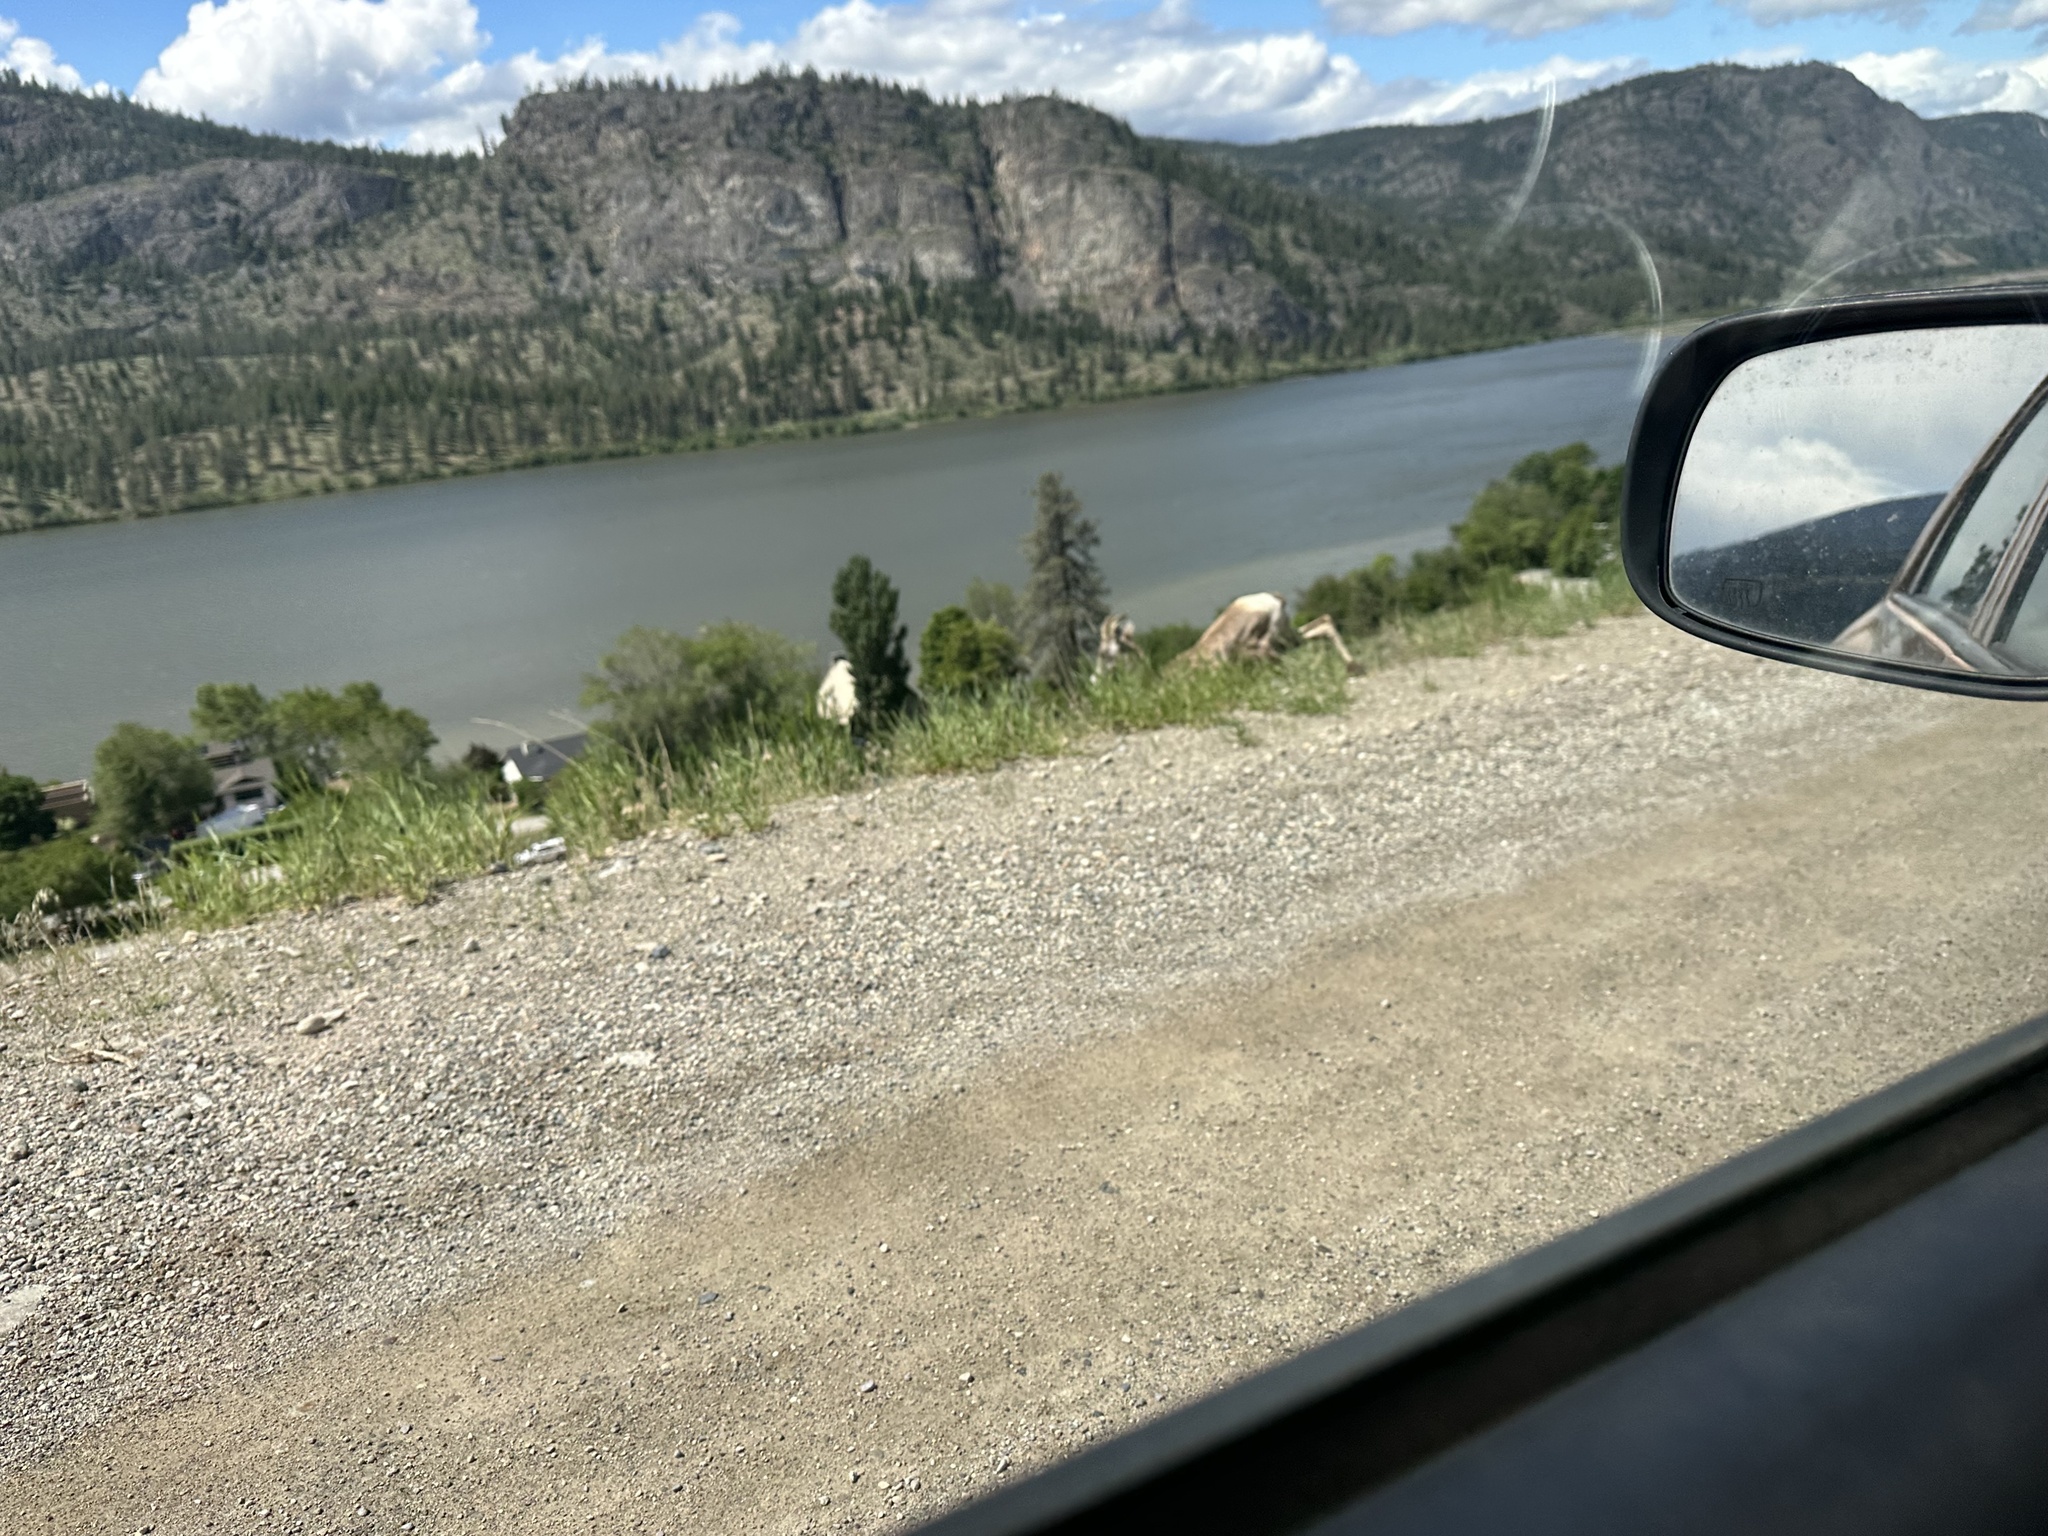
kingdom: Animalia
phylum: Chordata
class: Mammalia
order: Artiodactyla
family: Bovidae
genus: Ovis
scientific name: Ovis canadensis
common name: Bighorn sheep
